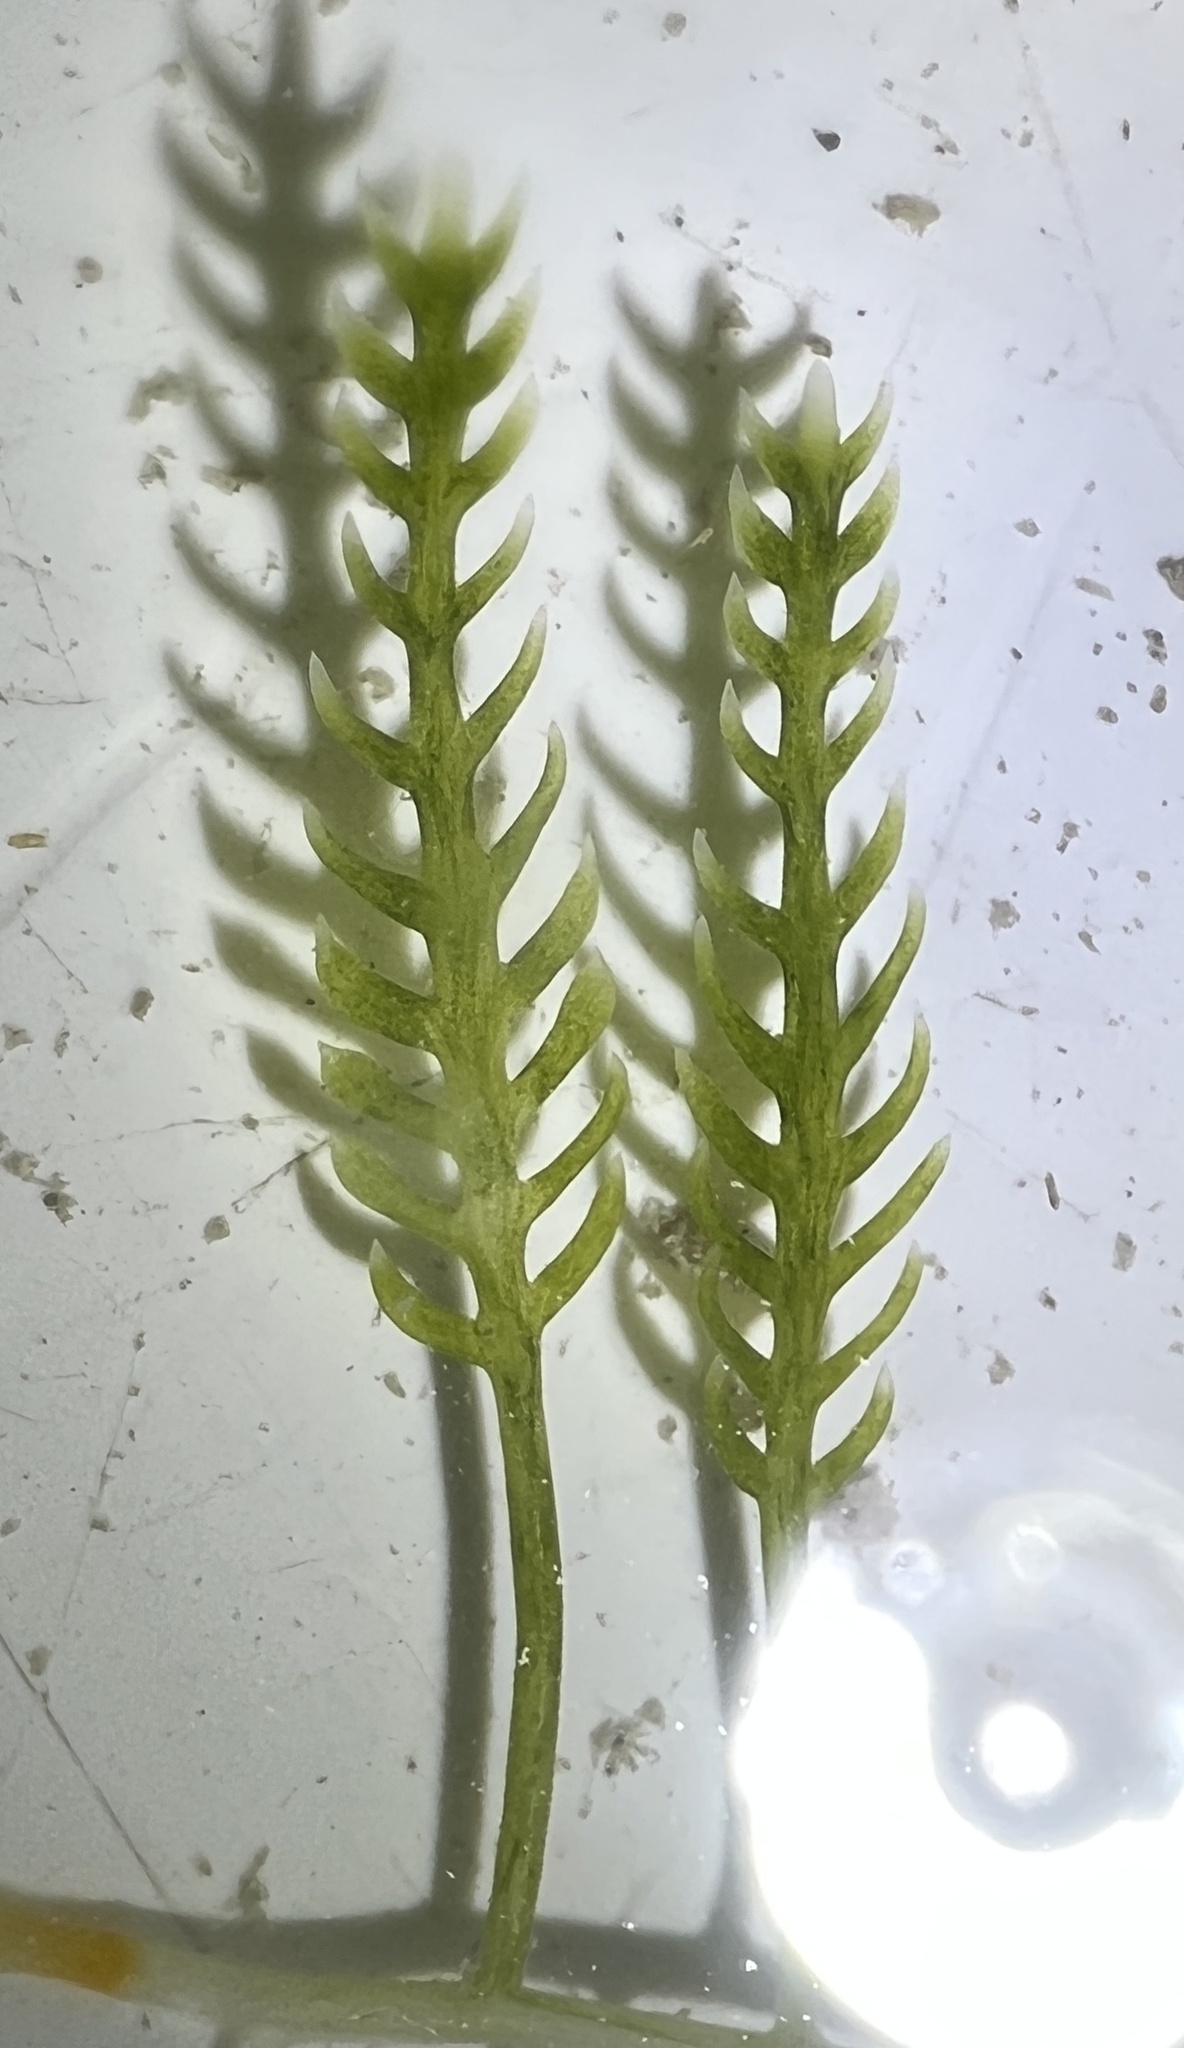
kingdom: Plantae
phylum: Chlorophyta
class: Ulvophyceae
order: Bryopsidales
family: Caulerpaceae
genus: Caulerpa
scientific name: Caulerpa mexicana
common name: Flat green feather algae
